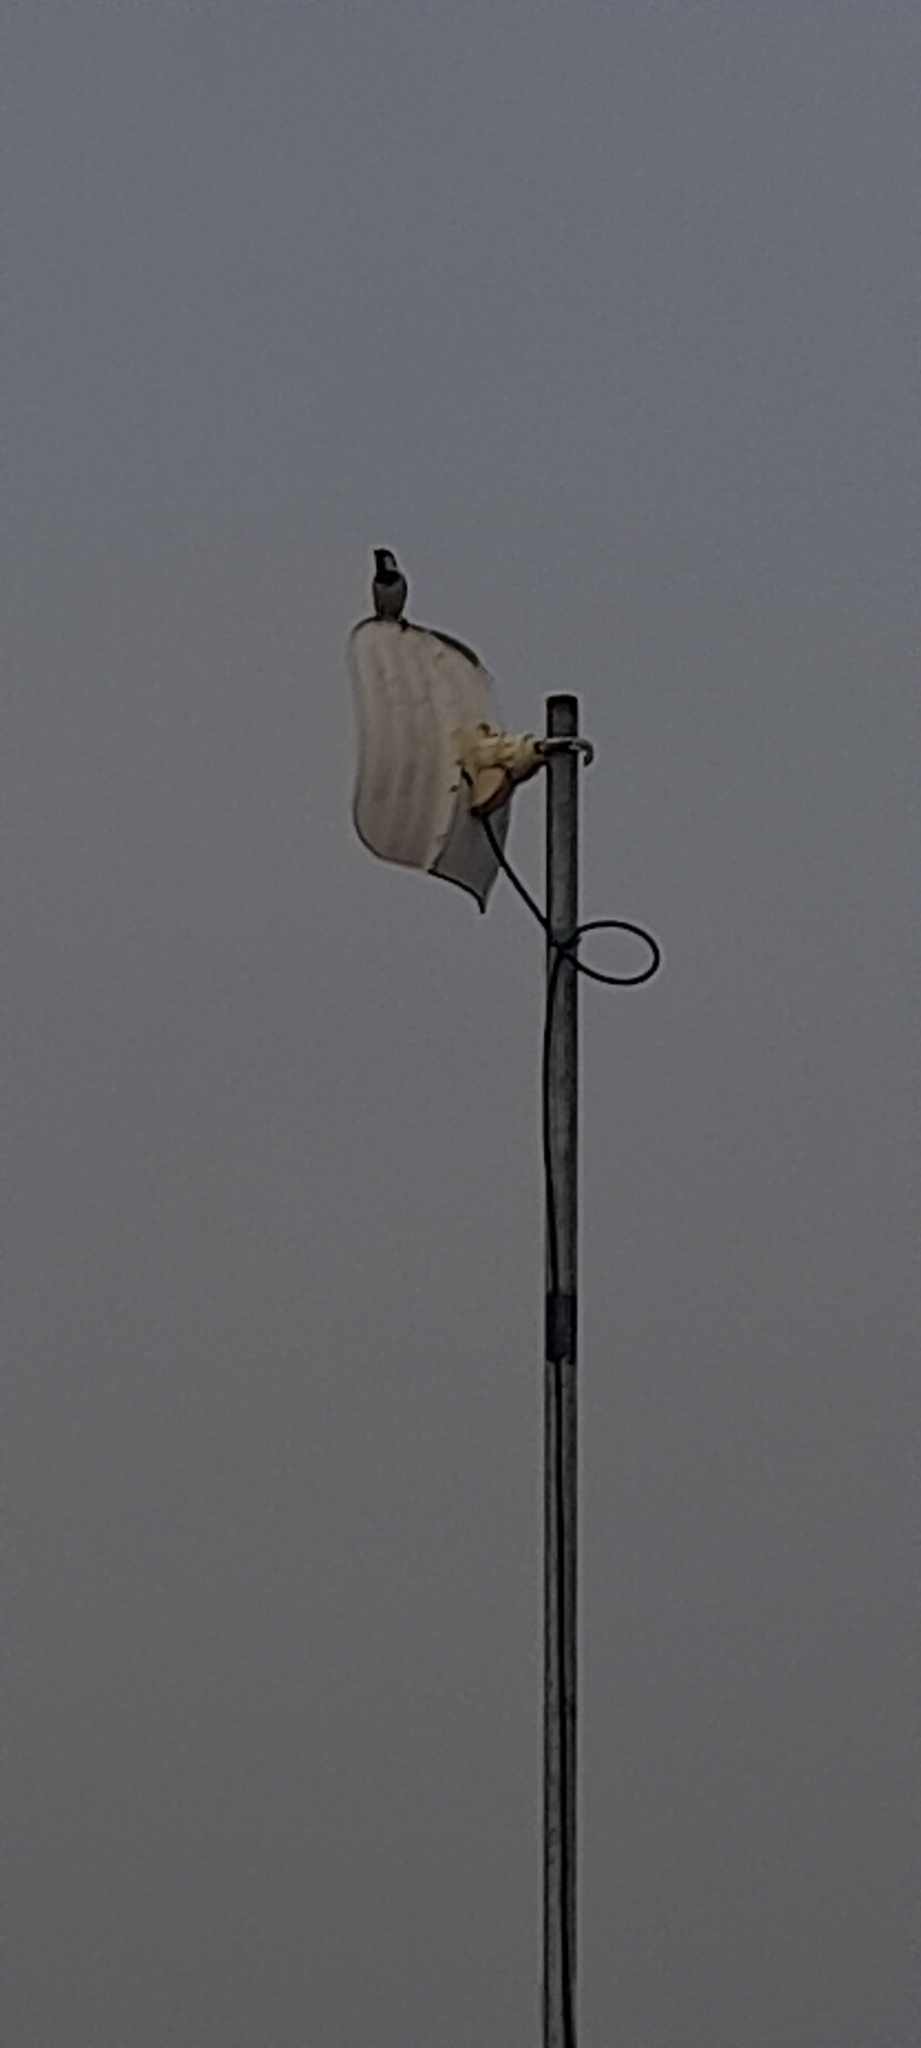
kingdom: Animalia
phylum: Chordata
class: Aves
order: Passeriformes
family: Passeridae
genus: Passer
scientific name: Passer domesticus
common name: House sparrow
